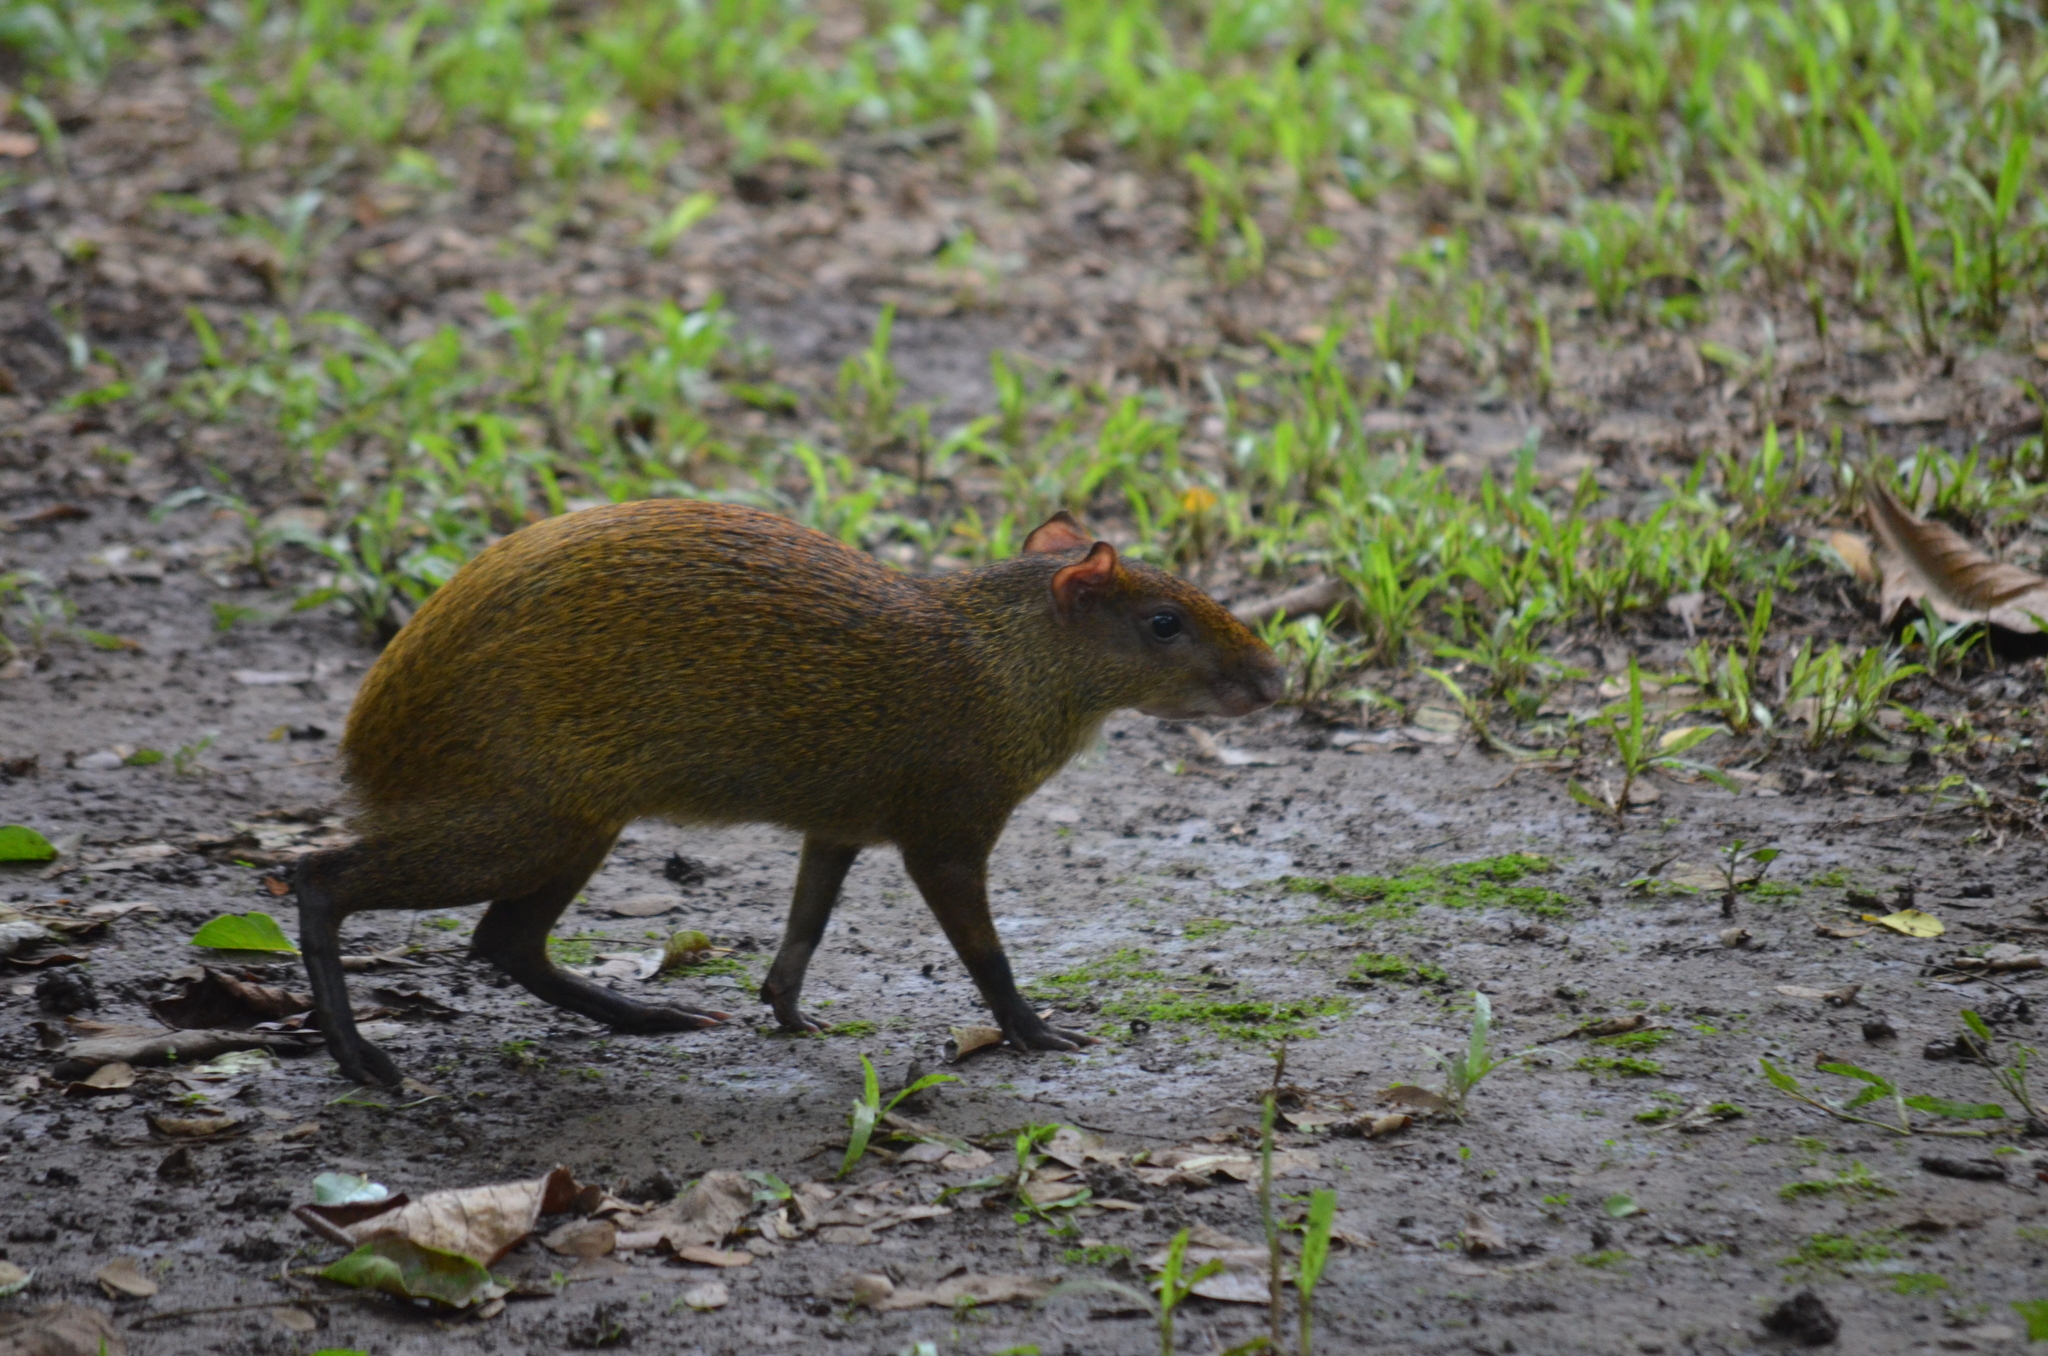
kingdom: Animalia
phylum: Chordata
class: Mammalia
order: Rodentia
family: Dasyproctidae
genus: Dasyprocta
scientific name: Dasyprocta punctata
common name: Central american agouti
